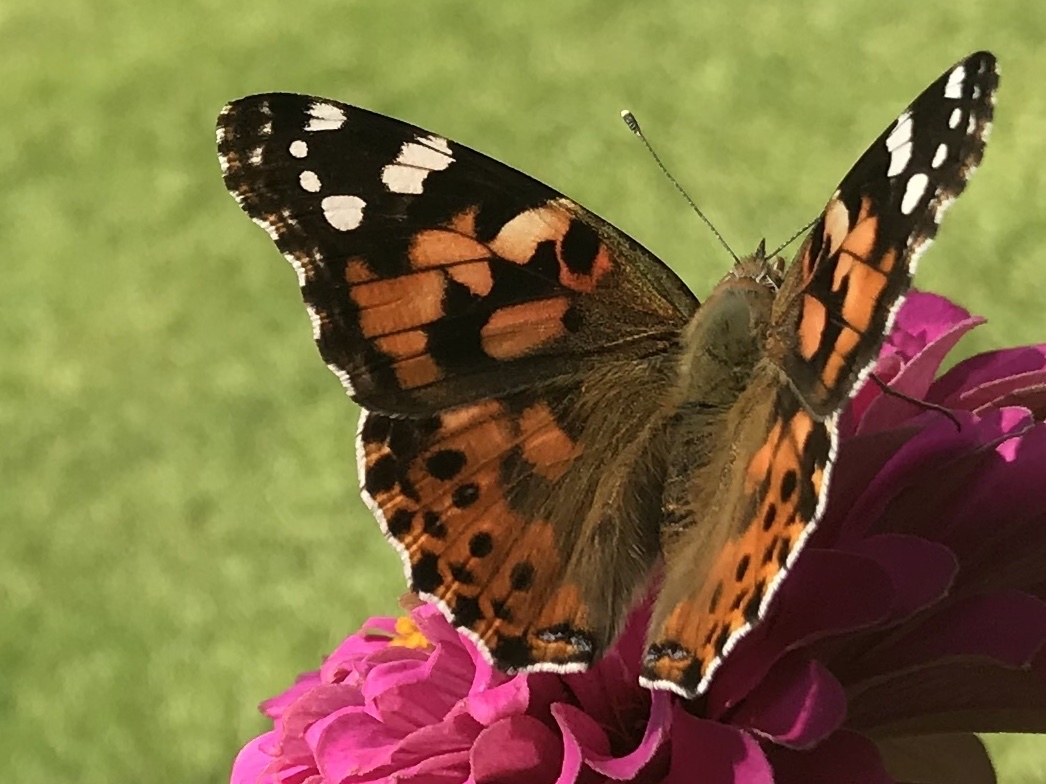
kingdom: Animalia
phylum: Arthropoda
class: Insecta
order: Lepidoptera
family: Nymphalidae
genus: Vanessa
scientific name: Vanessa cardui
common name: Painted lady
